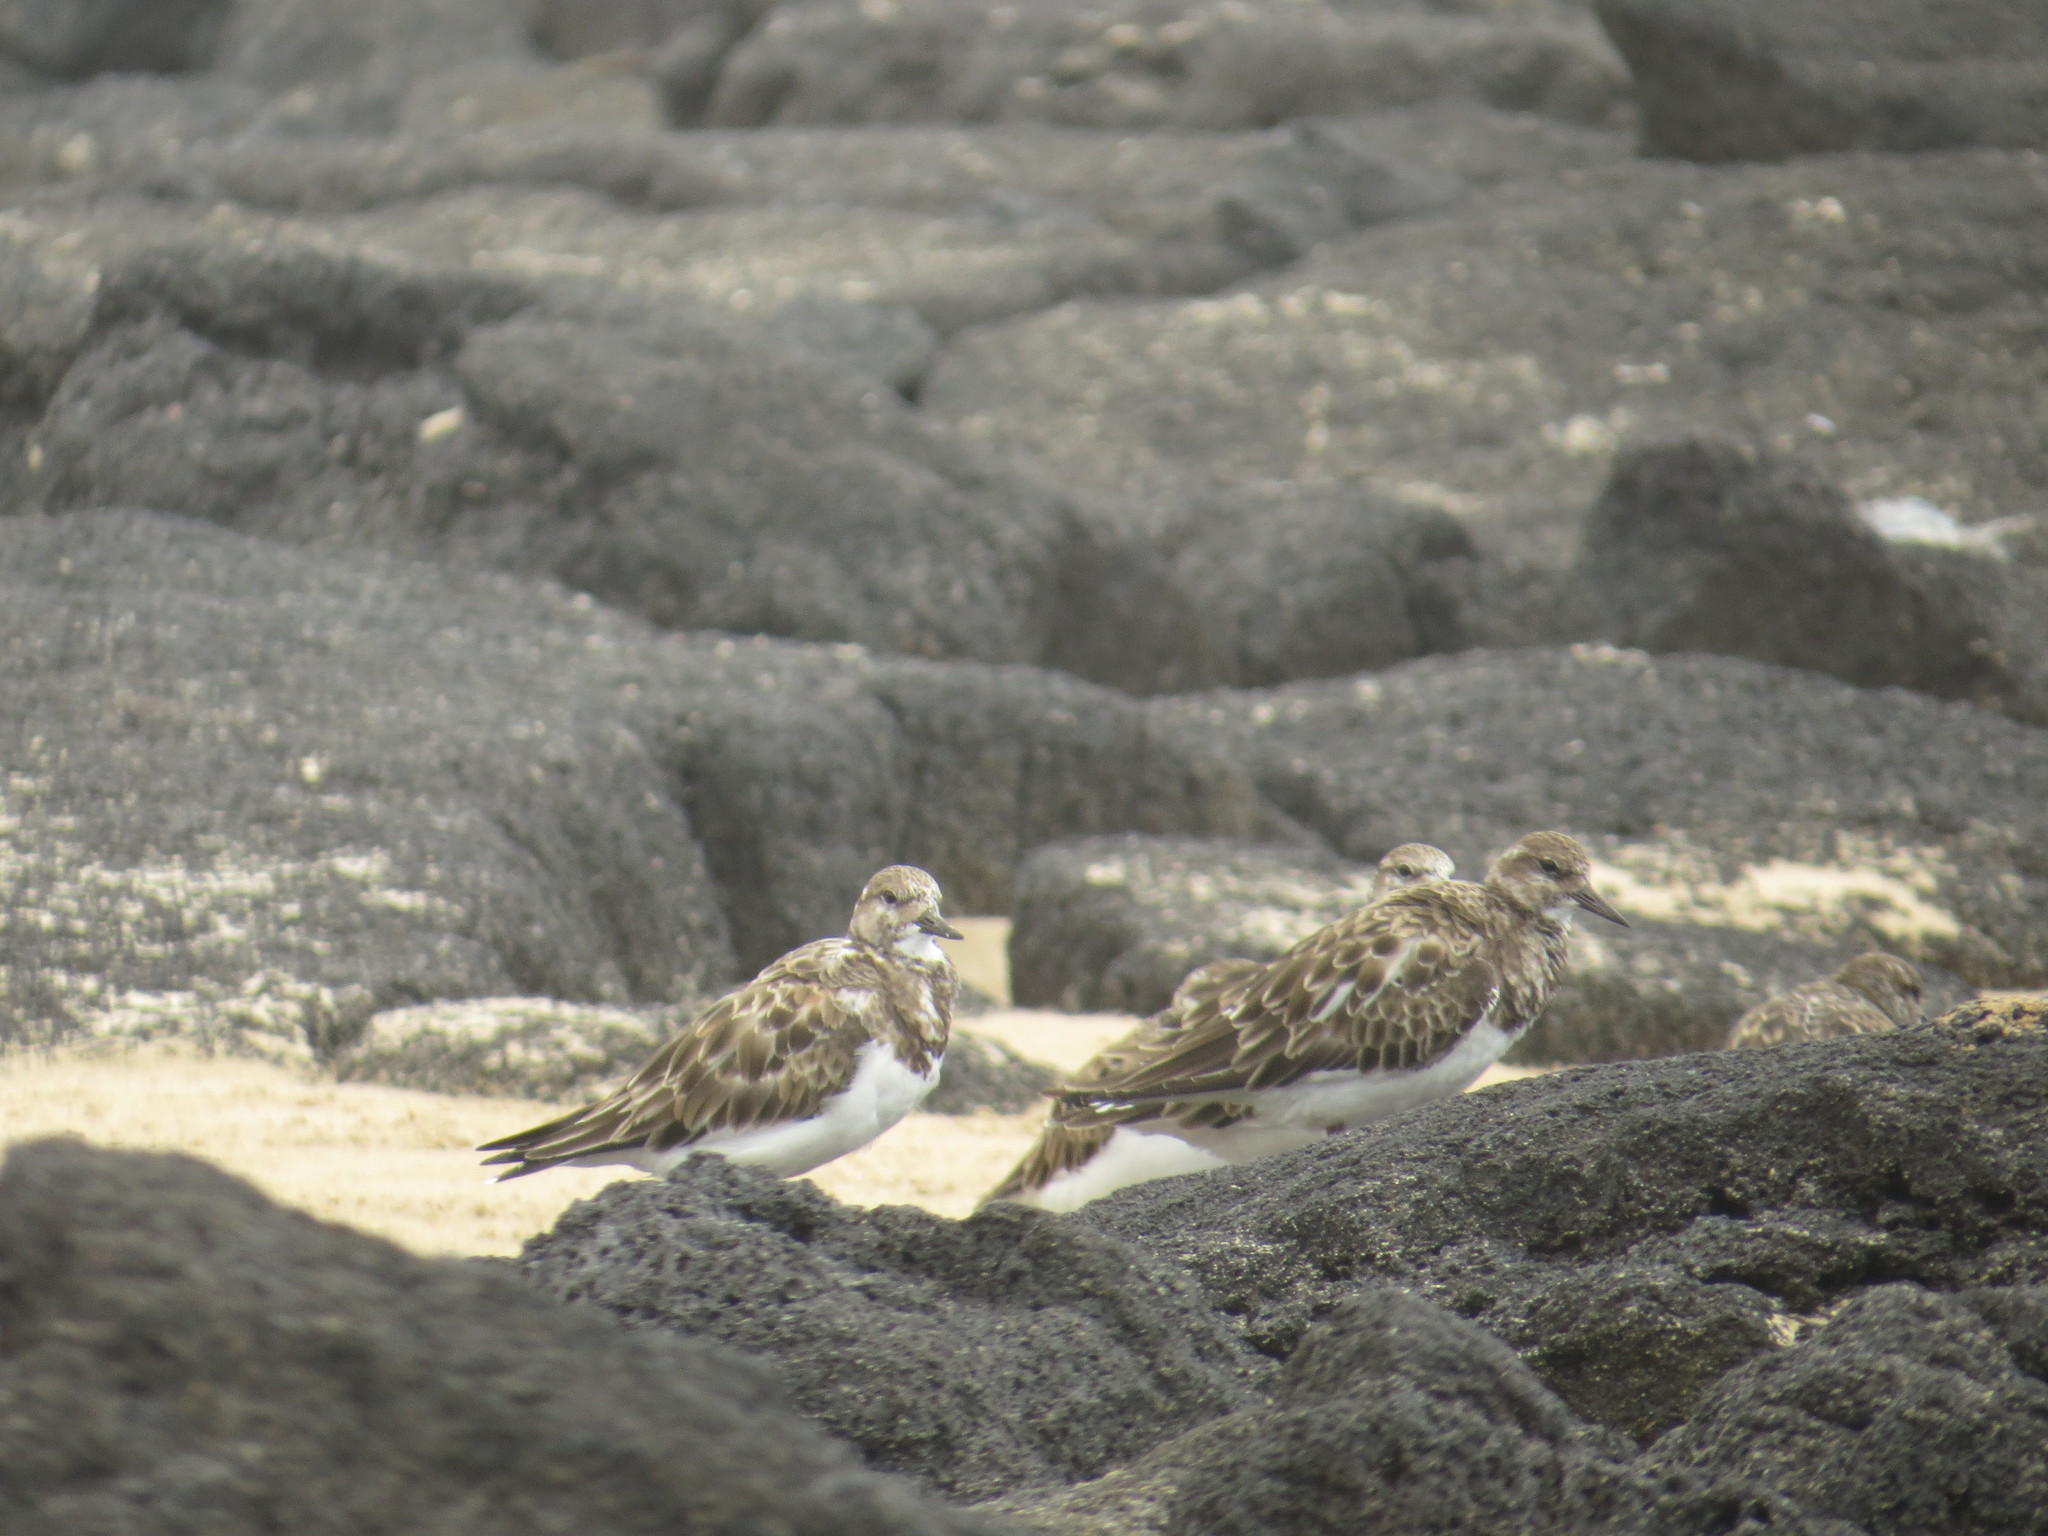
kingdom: Animalia
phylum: Chordata
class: Aves
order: Charadriiformes
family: Scolopacidae
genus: Arenaria
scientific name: Arenaria interpres
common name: Ruddy turnstone
